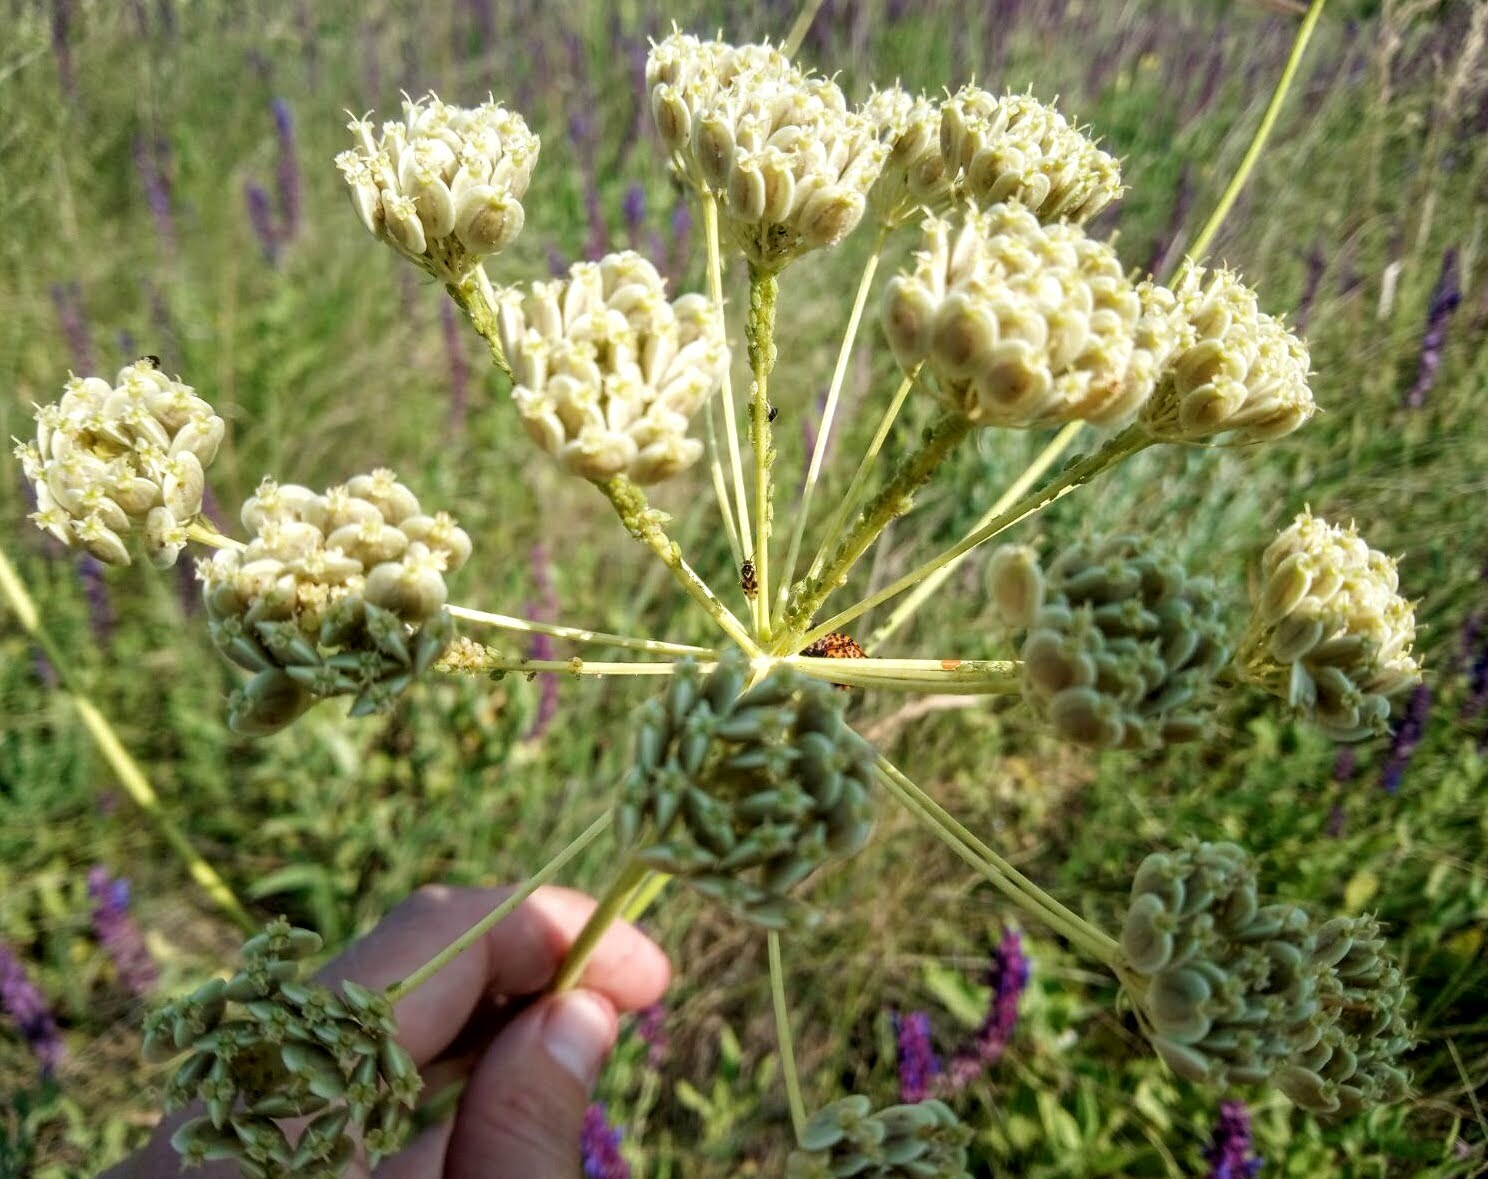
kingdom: Plantae
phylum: Tracheophyta
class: Magnoliopsida
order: Apiales
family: Apiaceae
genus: Pastinaca
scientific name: Pastinaca clausii
